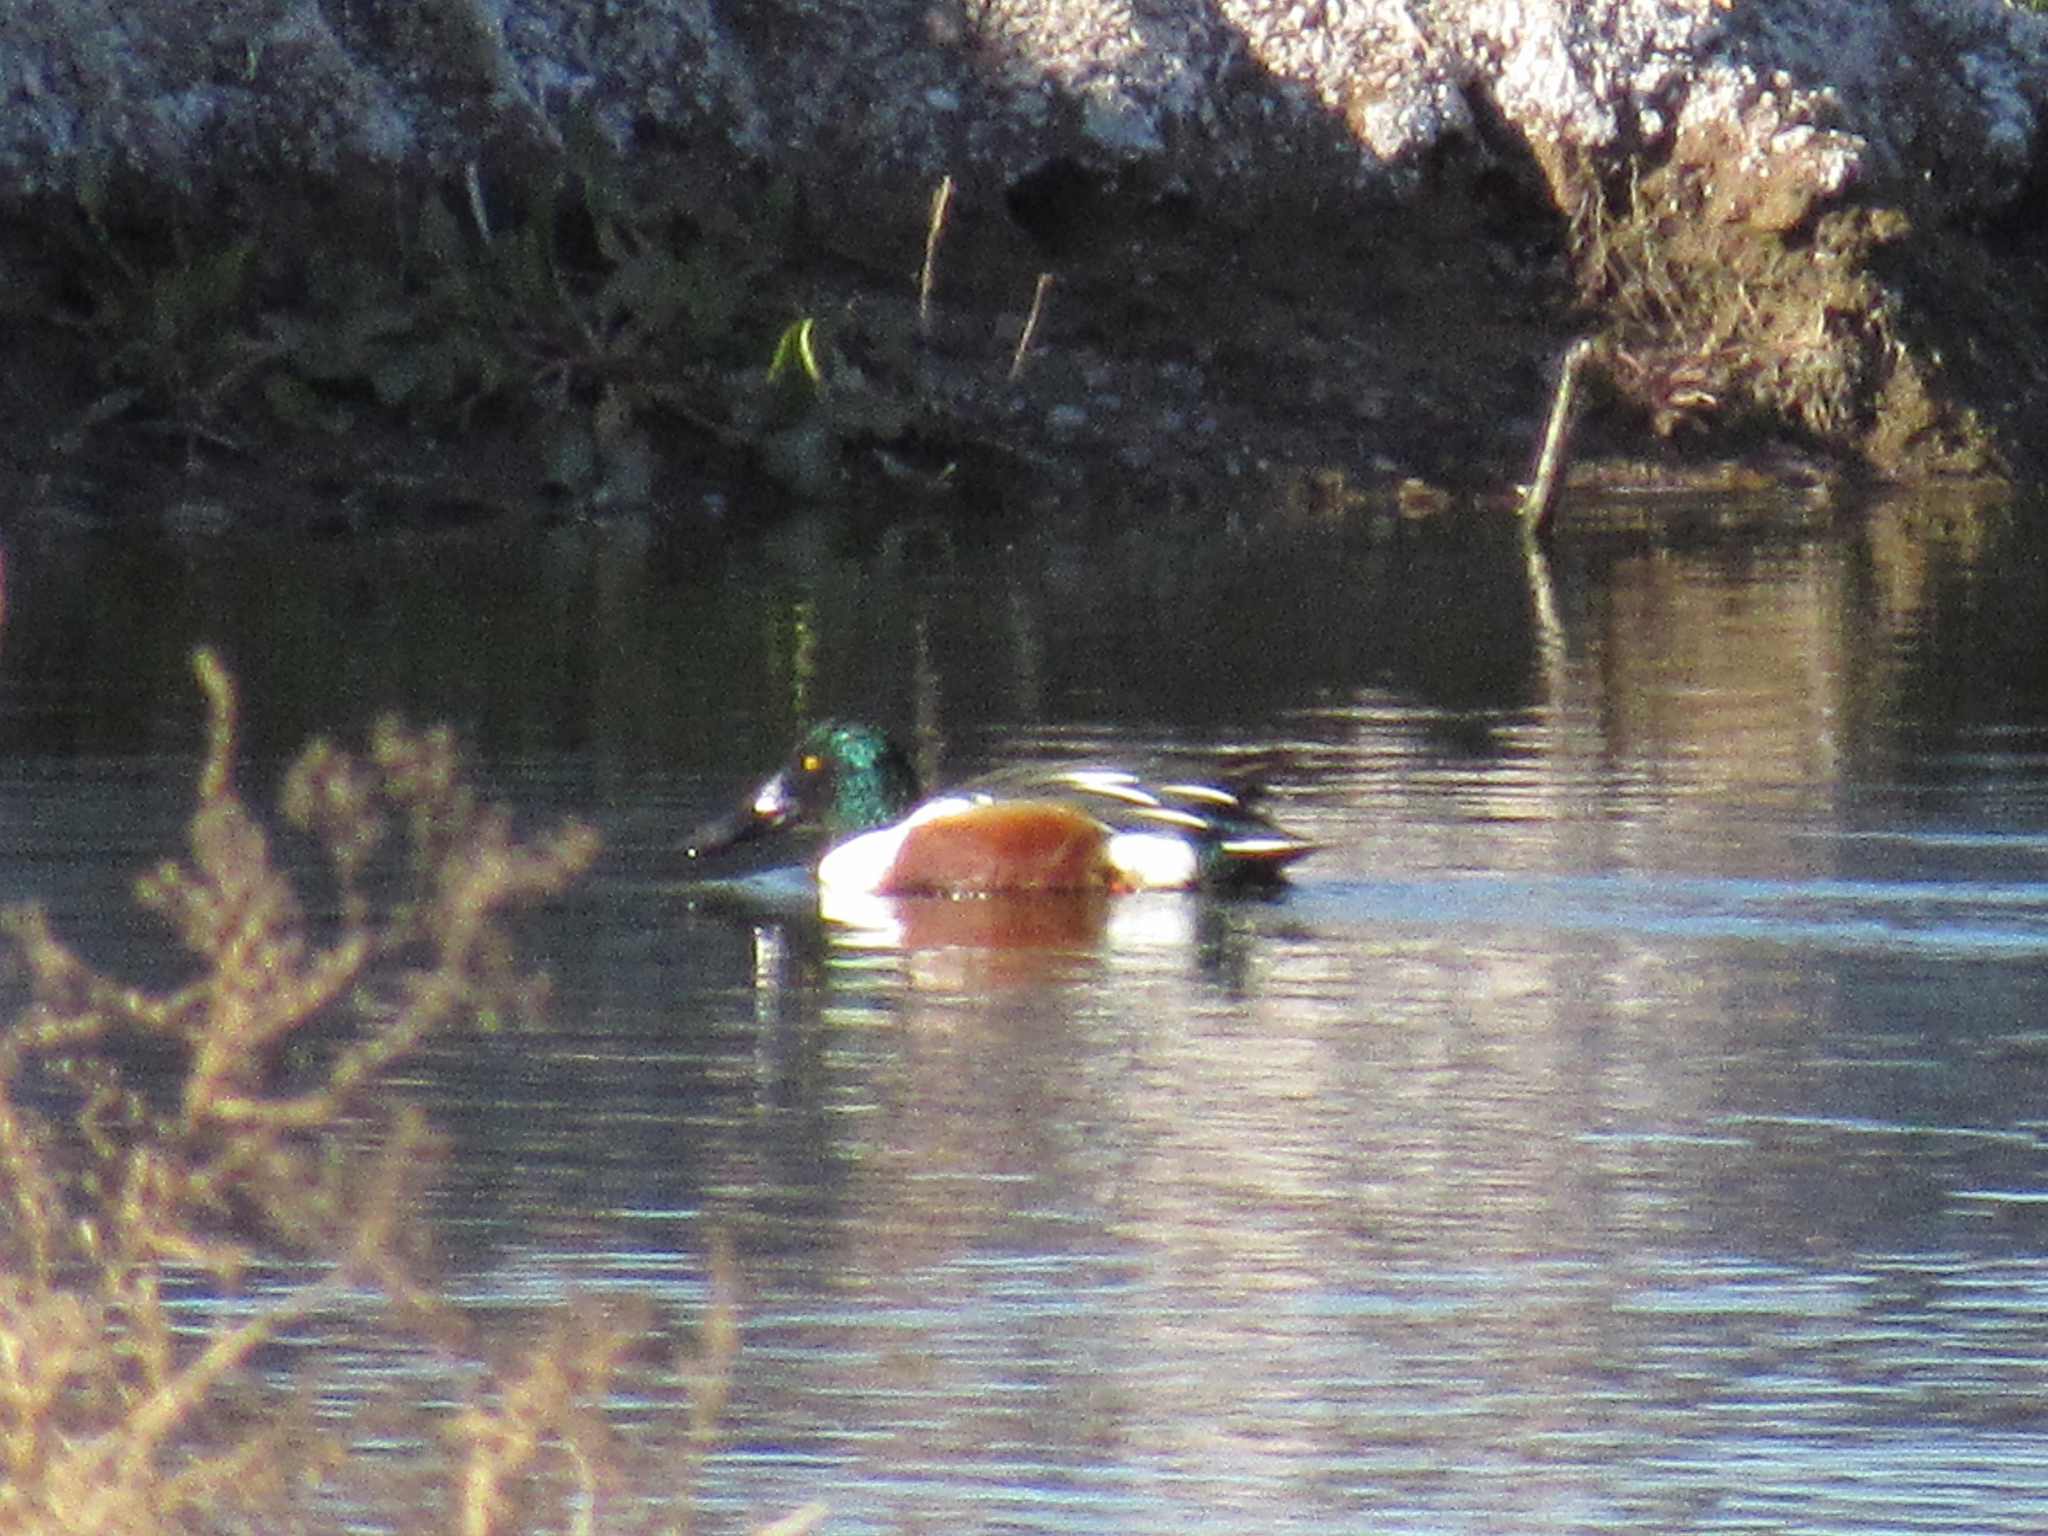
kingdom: Animalia
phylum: Chordata
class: Aves
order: Anseriformes
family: Anatidae
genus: Spatula
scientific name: Spatula clypeata
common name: Northern shoveler
